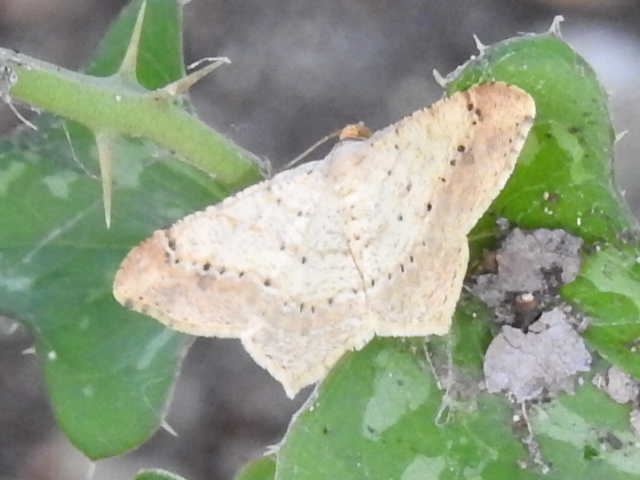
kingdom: Animalia
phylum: Arthropoda
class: Insecta
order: Lepidoptera
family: Geometridae
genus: Macaria
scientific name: Macaria abydata
